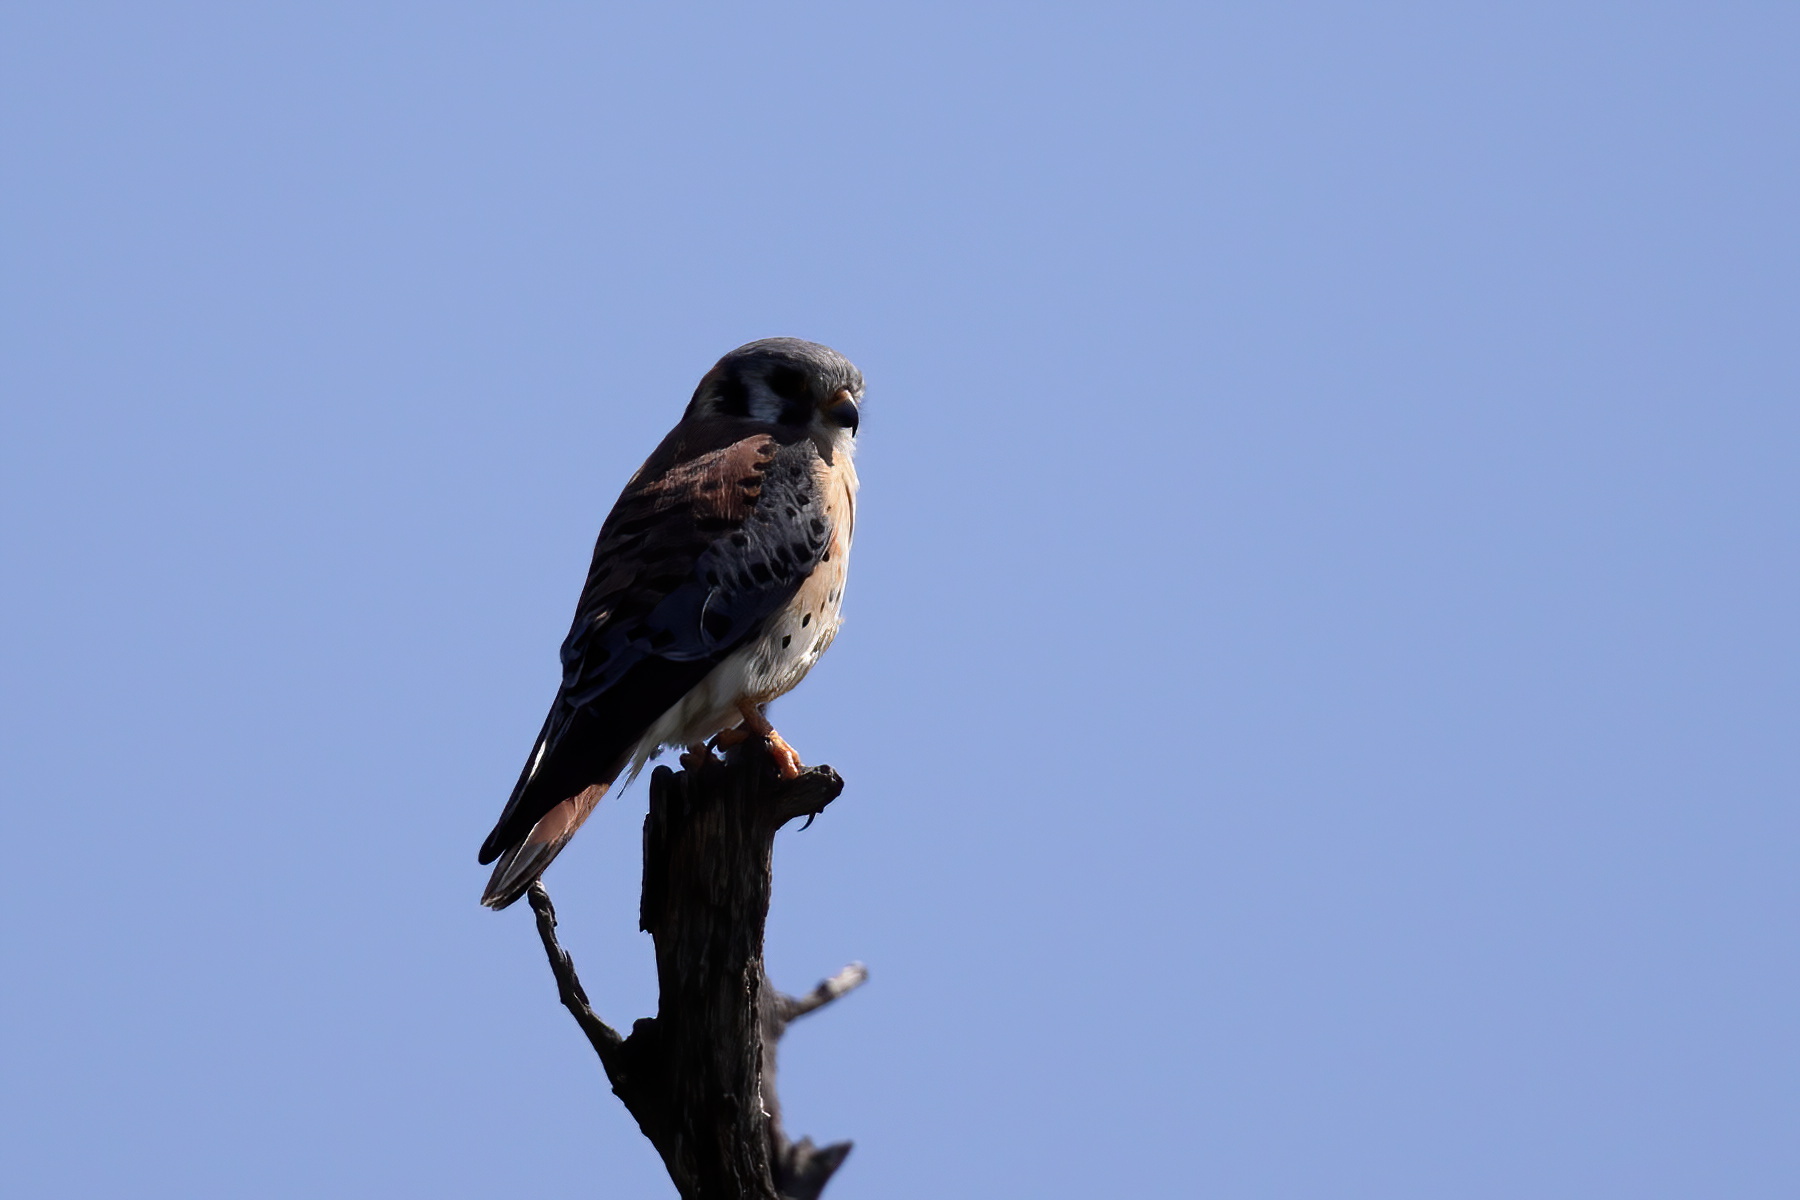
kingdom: Animalia
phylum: Chordata
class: Aves
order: Falconiformes
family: Falconidae
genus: Falco
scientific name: Falco sparverius
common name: American kestrel
